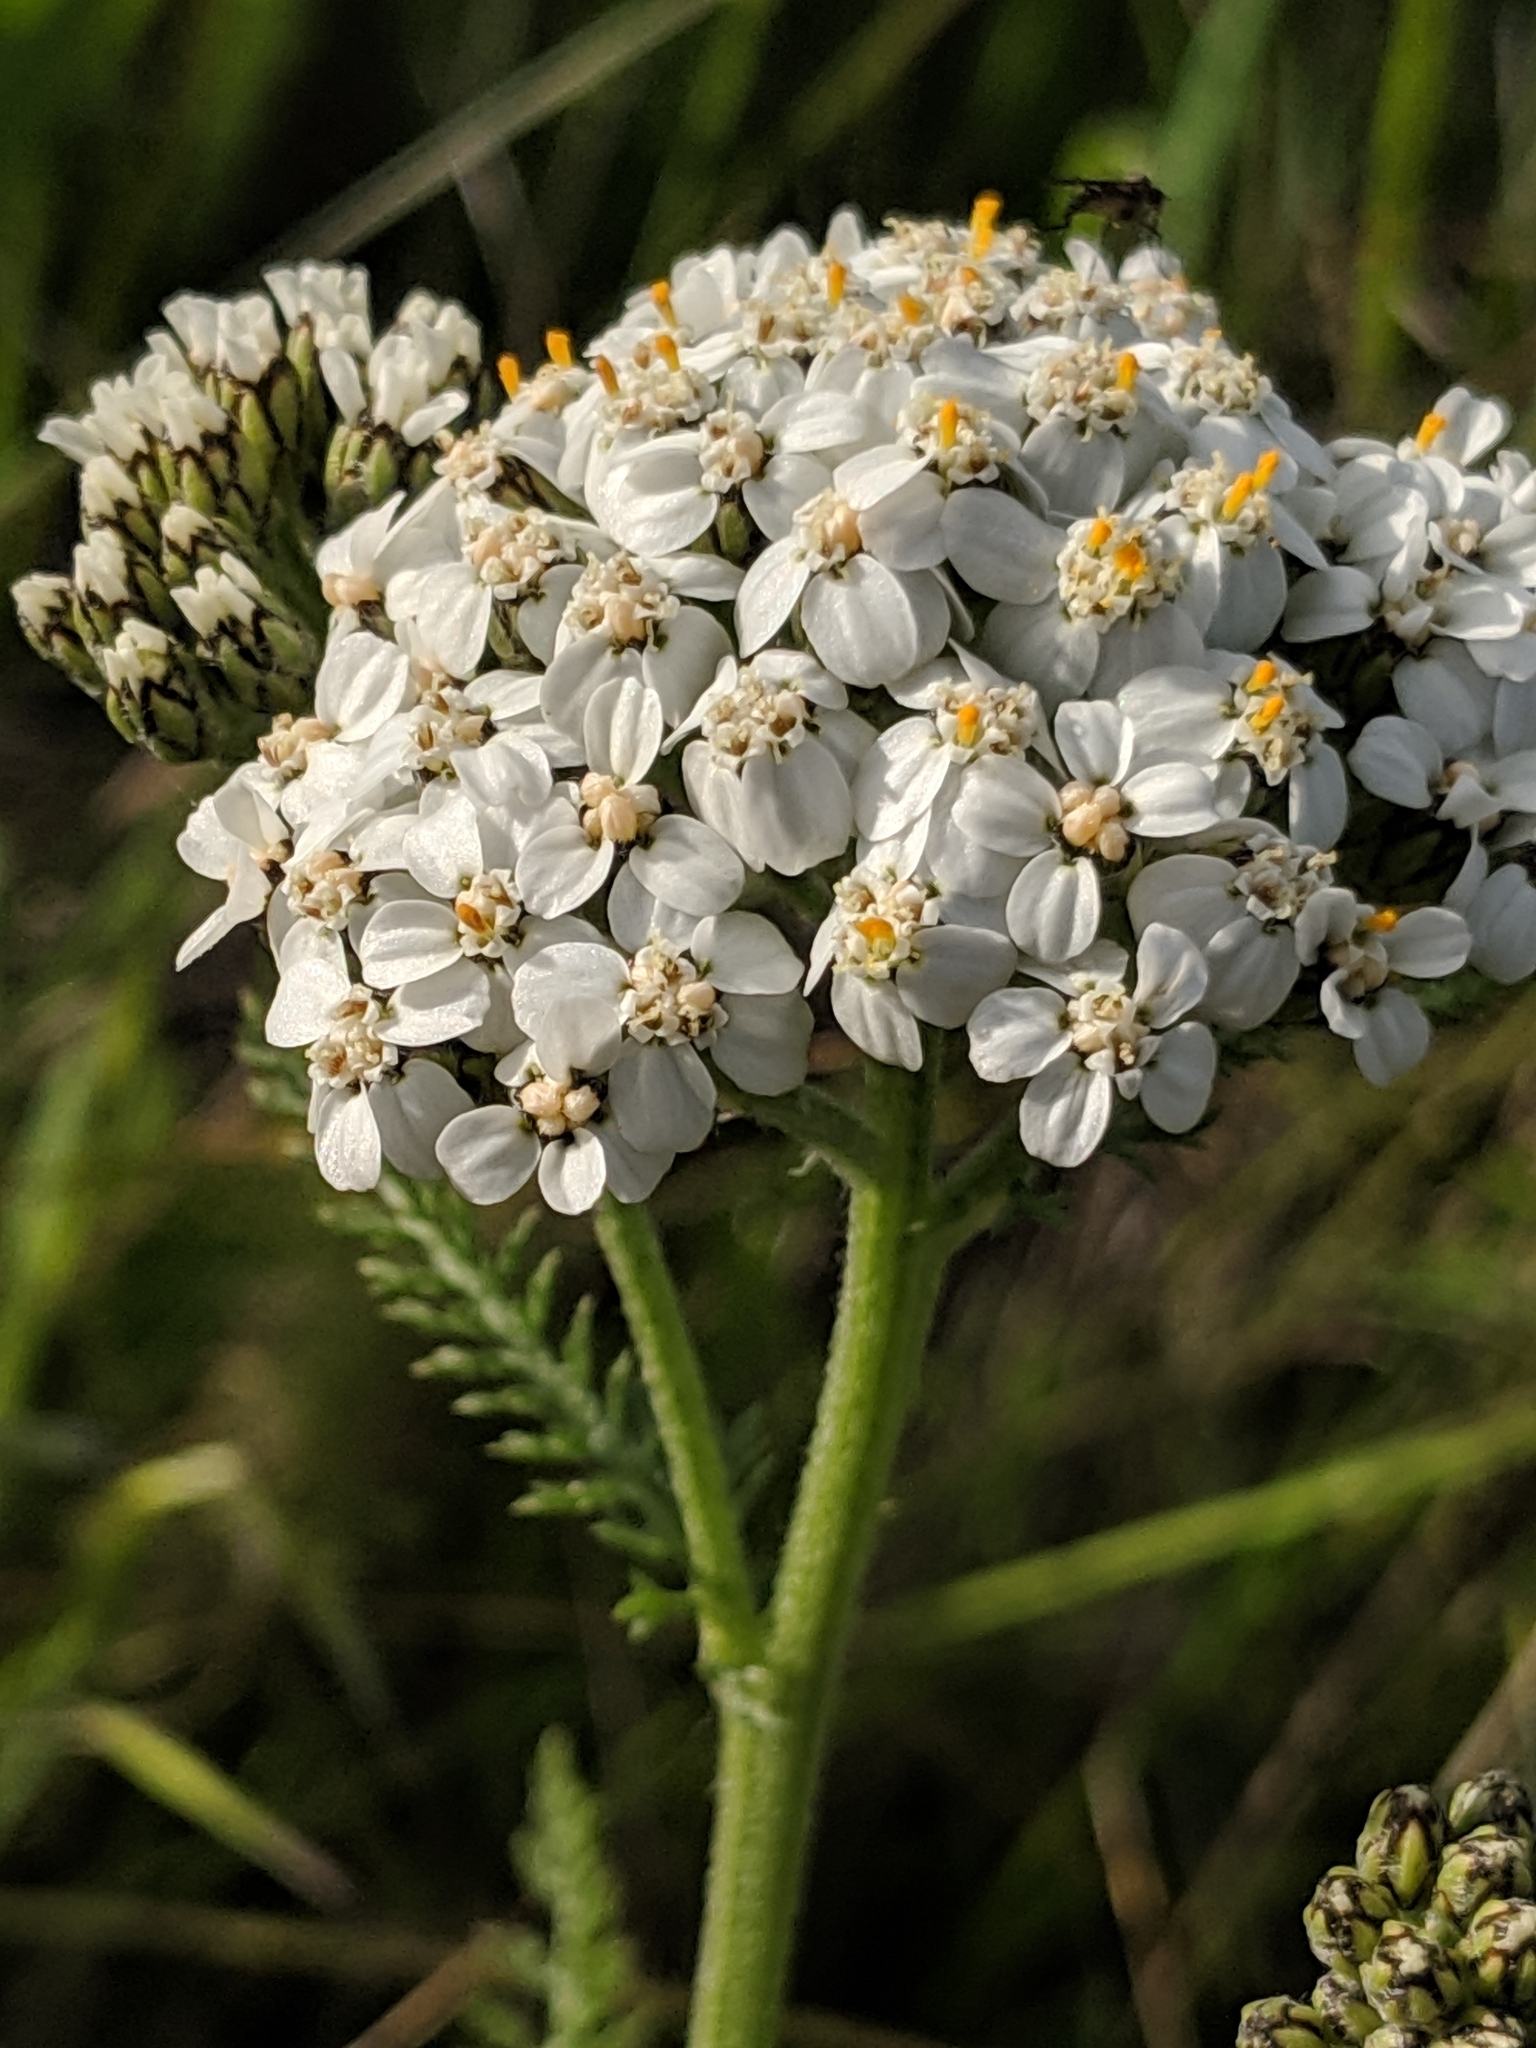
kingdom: Plantae
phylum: Tracheophyta
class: Magnoliopsida
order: Asterales
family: Asteraceae
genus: Achillea
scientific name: Achillea millefolium
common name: Yarrow
